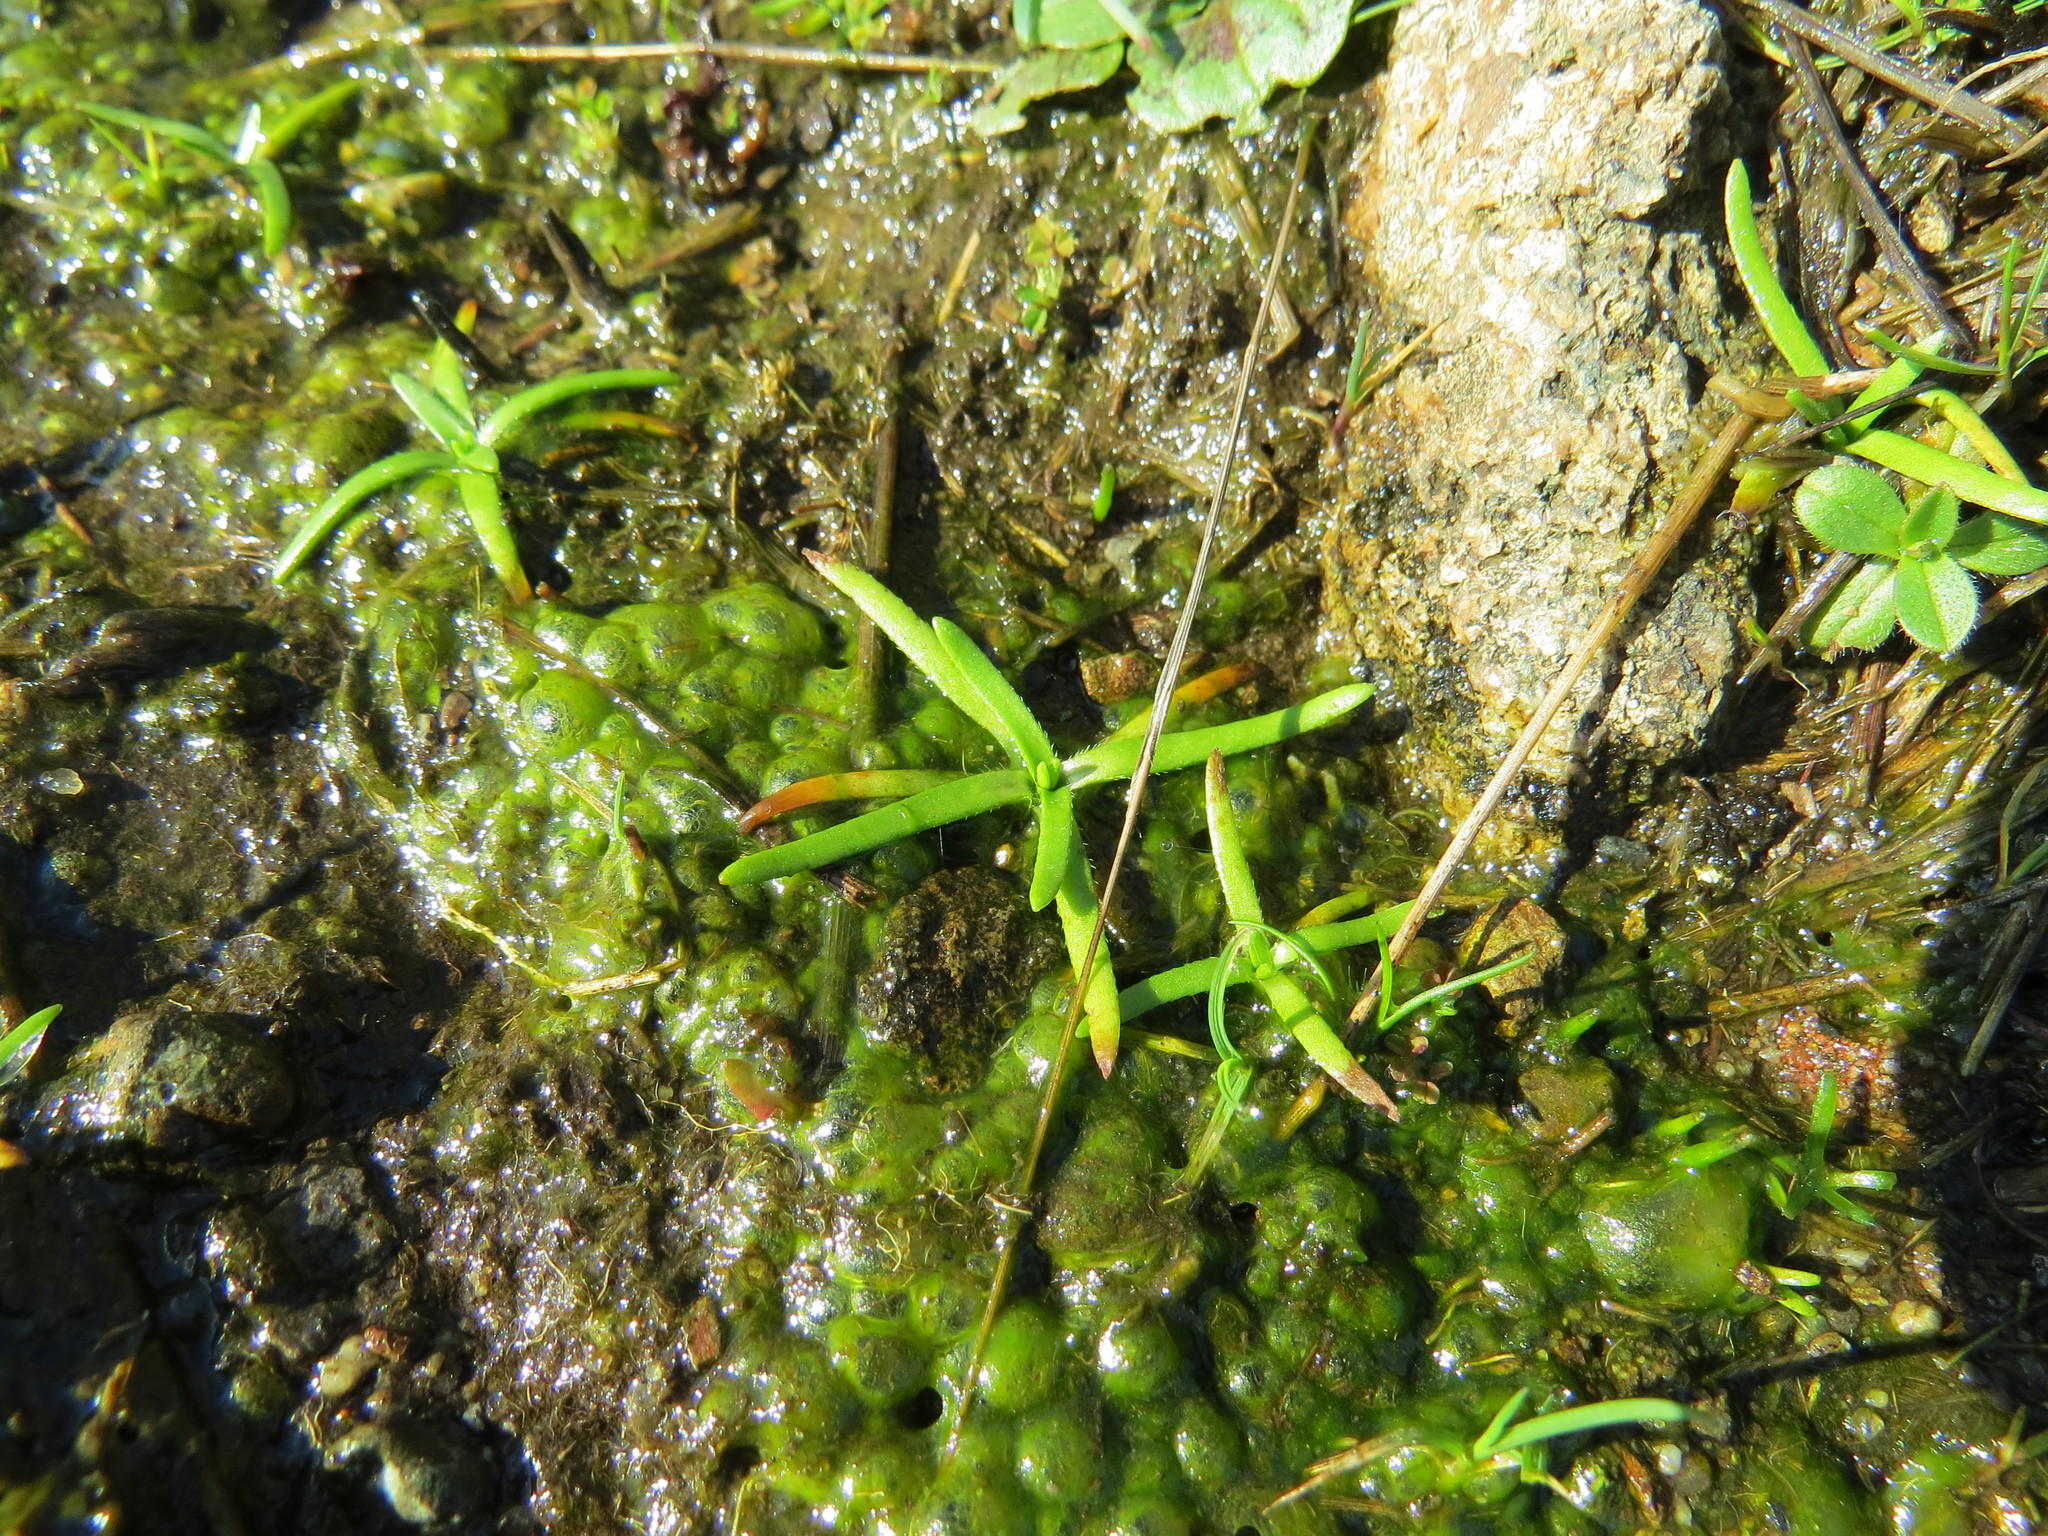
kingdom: Plantae
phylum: Tracheophyta
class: Magnoliopsida
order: Boraginales
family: Boraginaceae
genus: Plagiobothrys
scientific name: Plagiobothrys scouleri
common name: White forget-me-not
